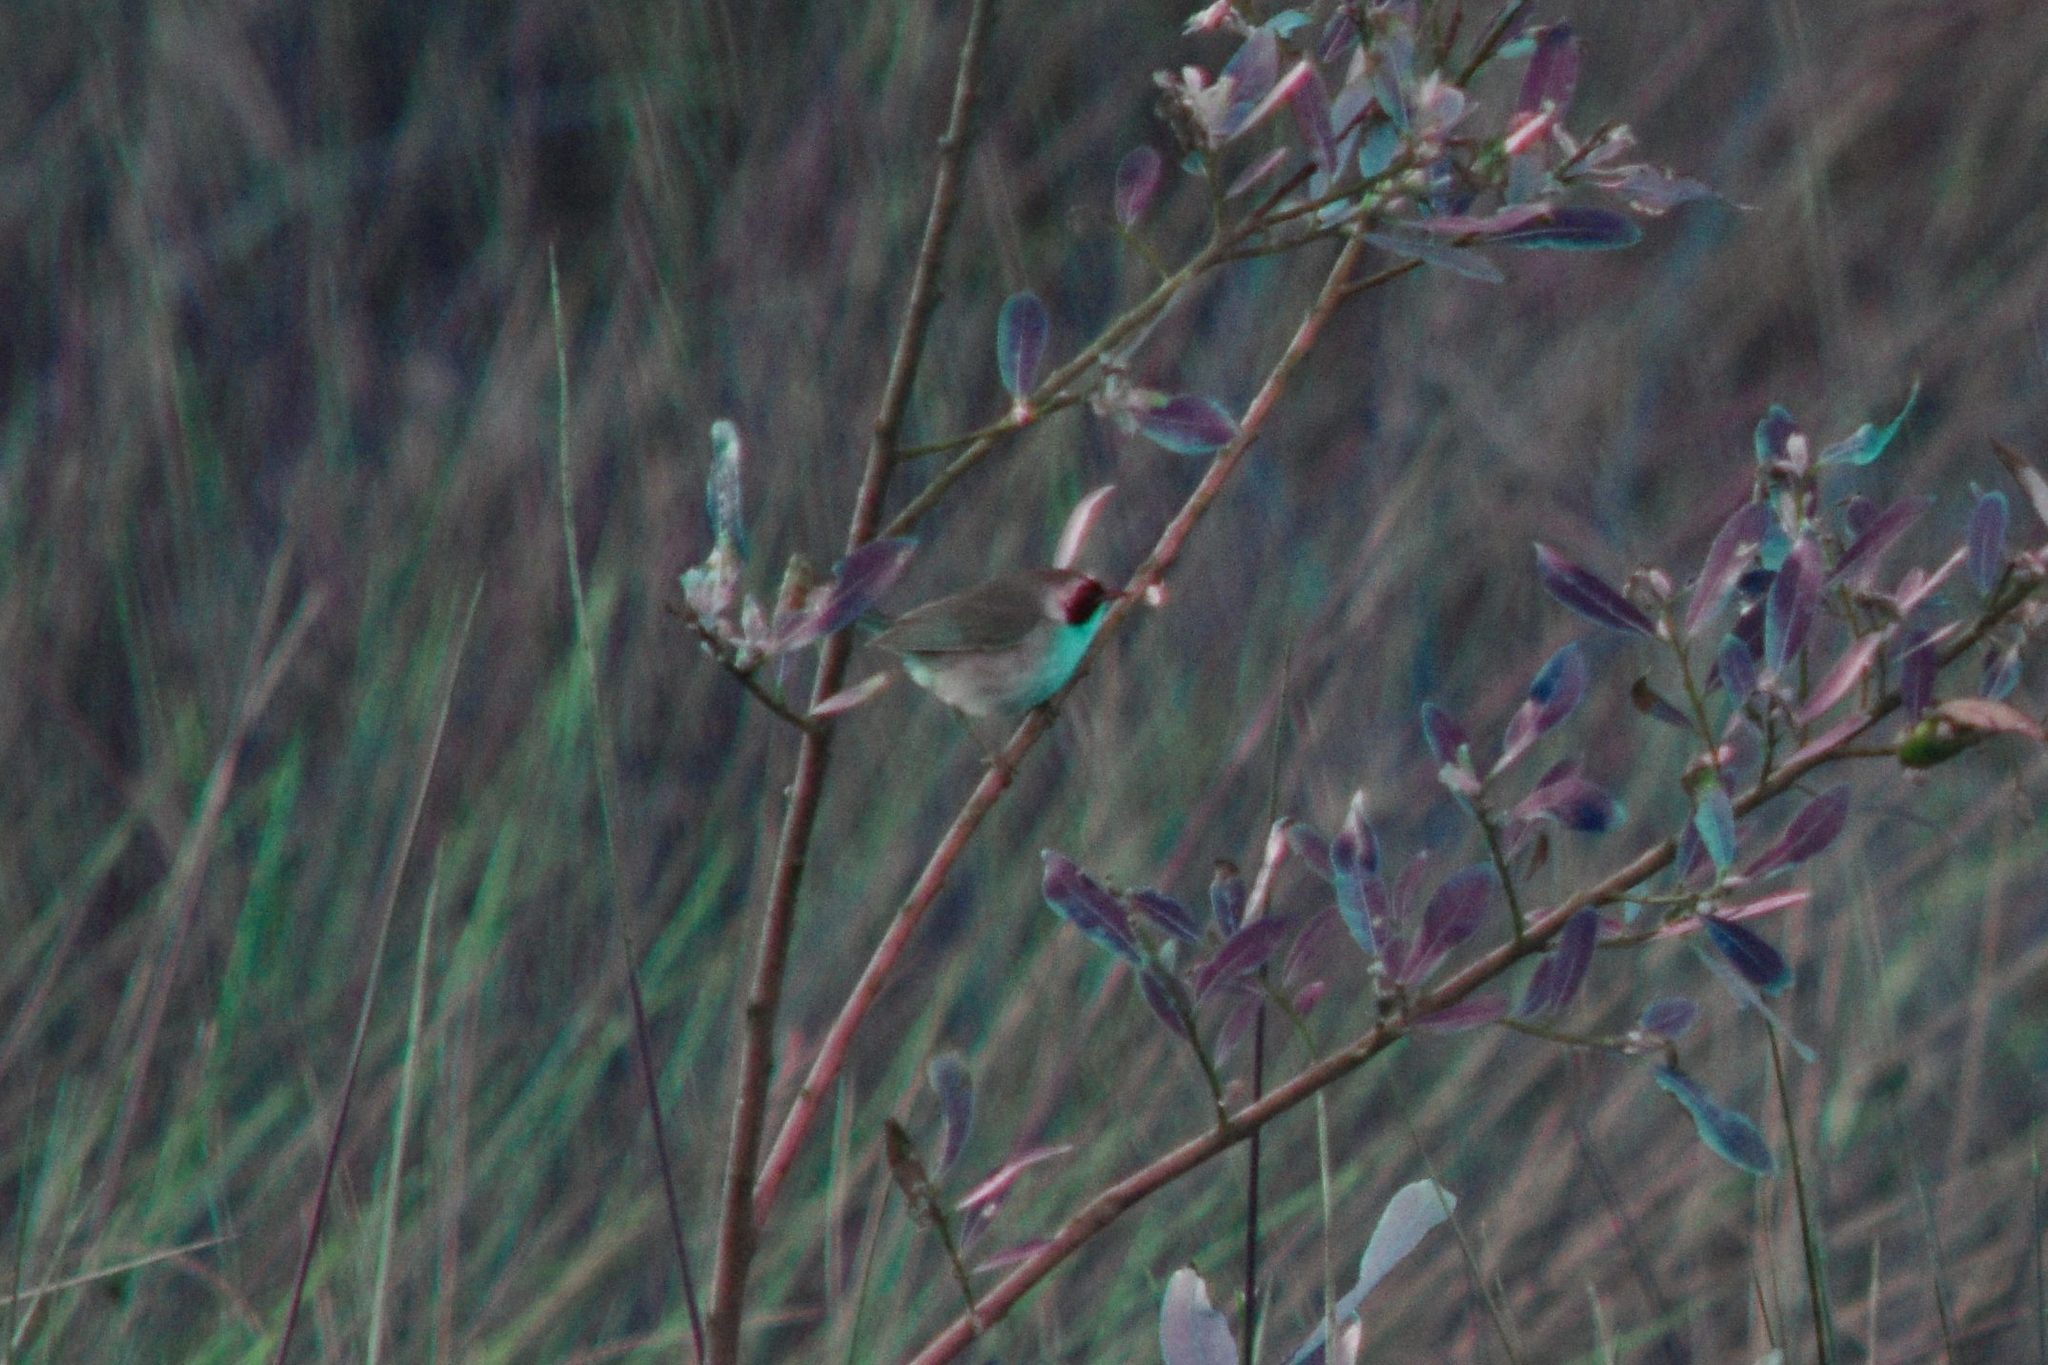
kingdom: Animalia
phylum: Chordata
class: Aves
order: Passeriformes
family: Parulidae
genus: Geothlypis
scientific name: Geothlypis trichas
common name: Common yellowthroat
